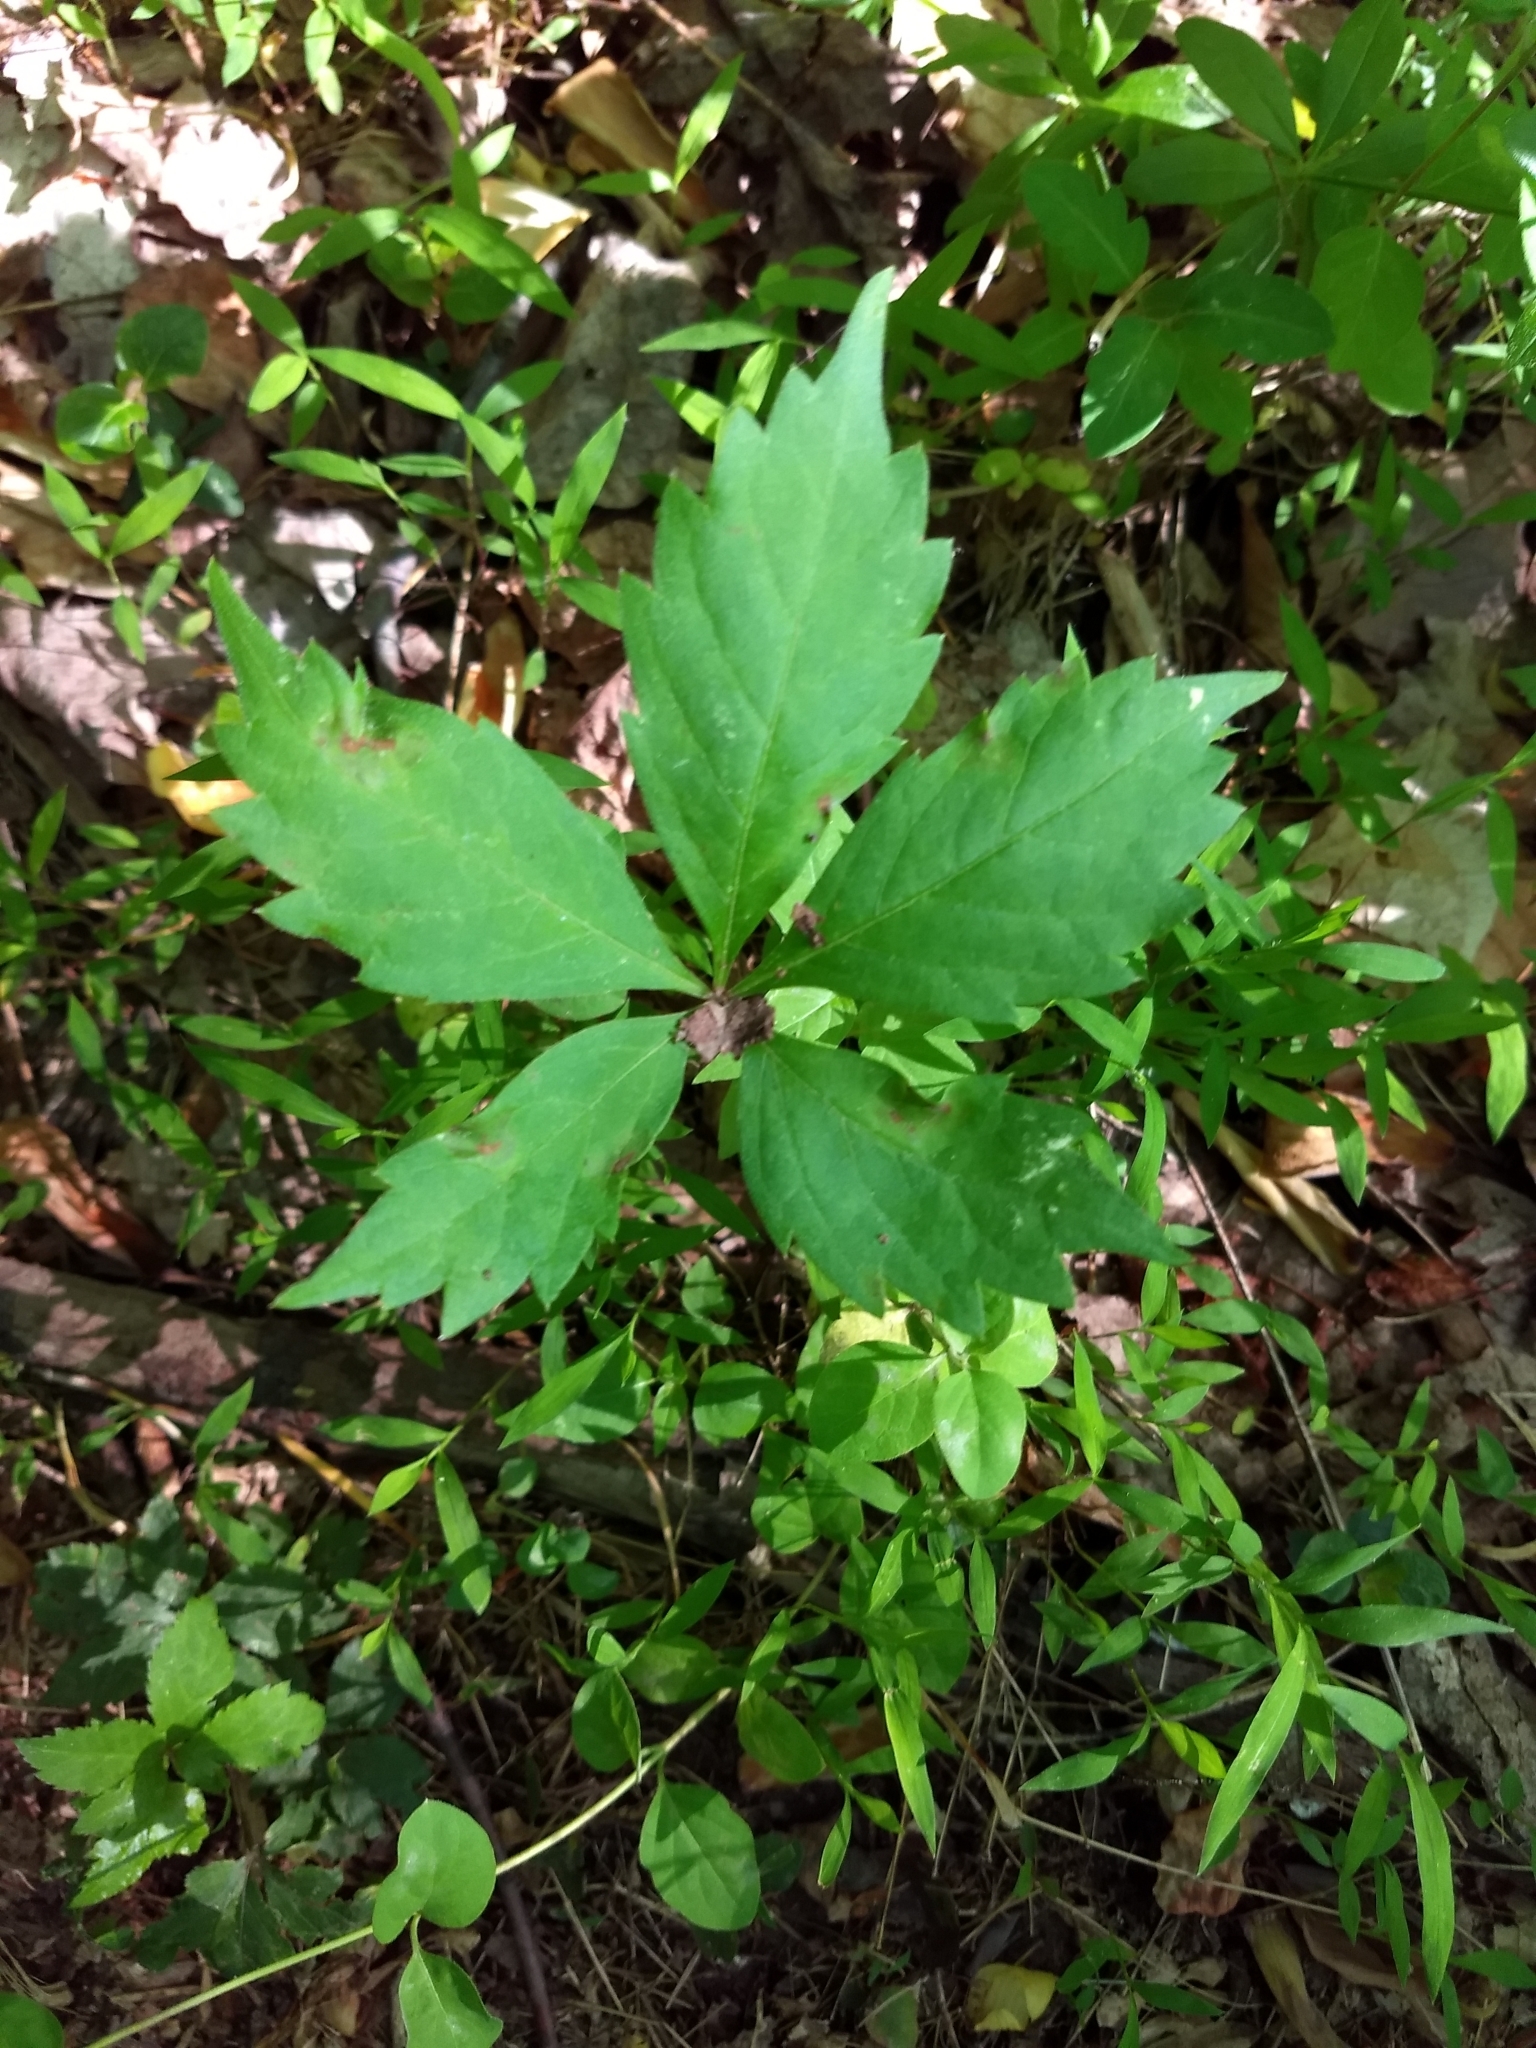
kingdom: Plantae
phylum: Tracheophyta
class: Magnoliopsida
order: Vitales
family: Vitaceae
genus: Parthenocissus
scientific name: Parthenocissus quinquefolia
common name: Virginia-creeper
